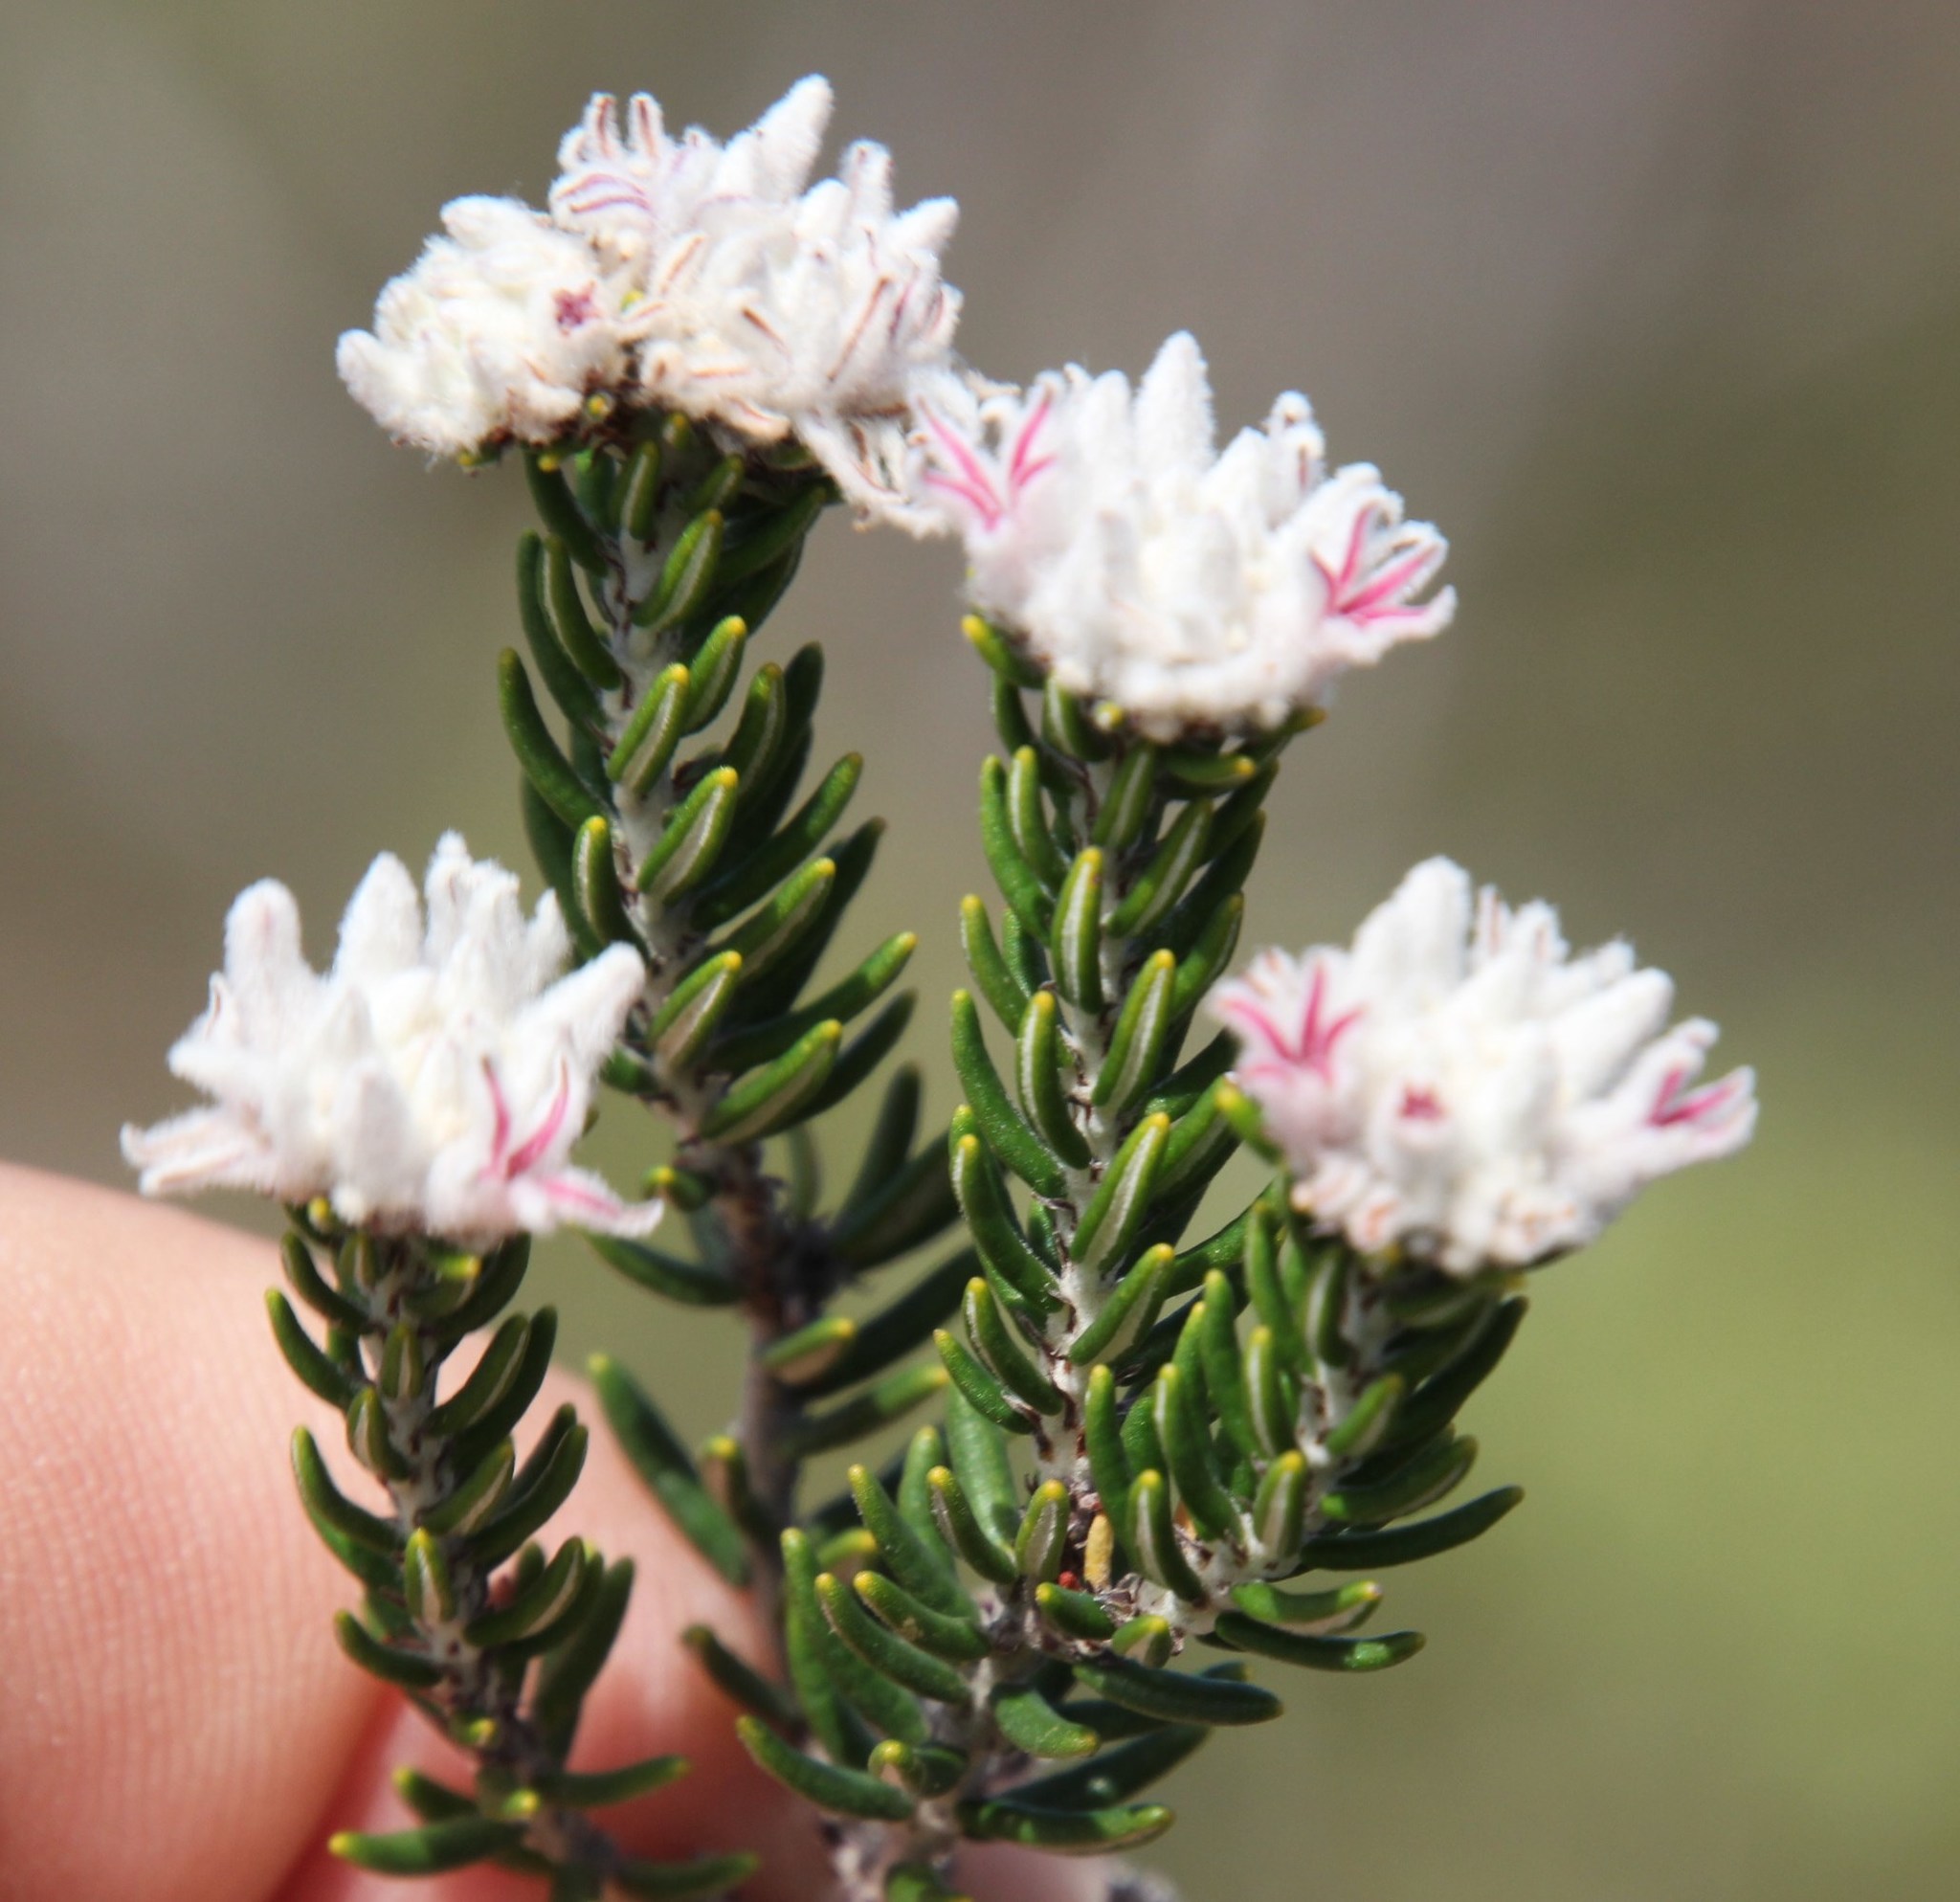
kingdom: Plantae
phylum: Tracheophyta
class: Magnoliopsida
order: Rosales
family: Rhamnaceae
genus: Trichocephalus
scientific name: Trichocephalus stipularis
